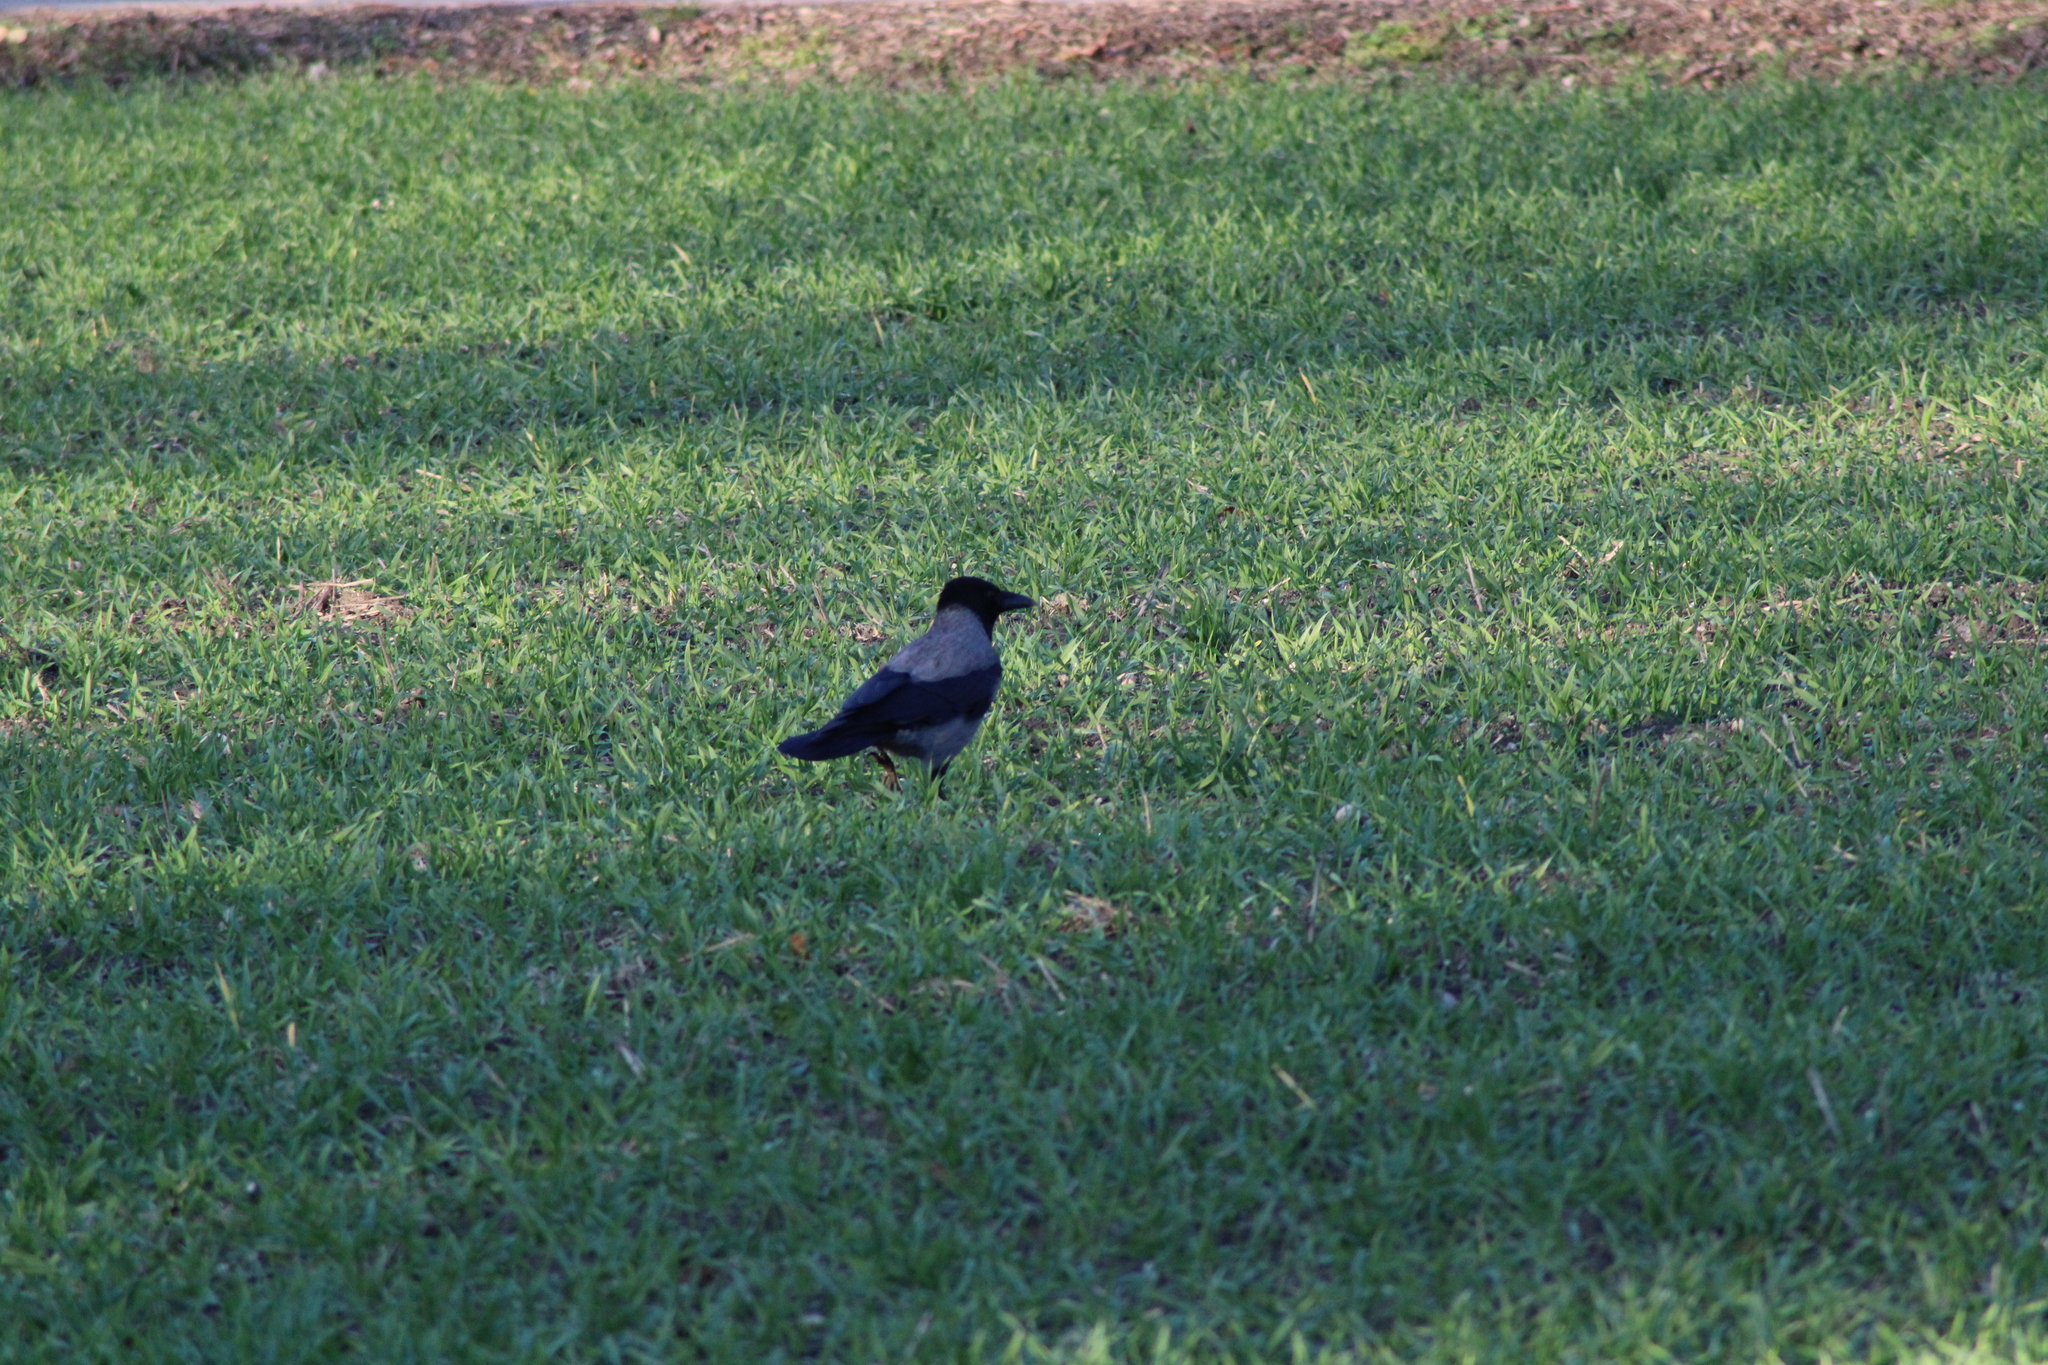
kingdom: Animalia
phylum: Chordata
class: Aves
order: Passeriformes
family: Corvidae
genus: Corvus
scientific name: Corvus cornix
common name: Hooded crow
